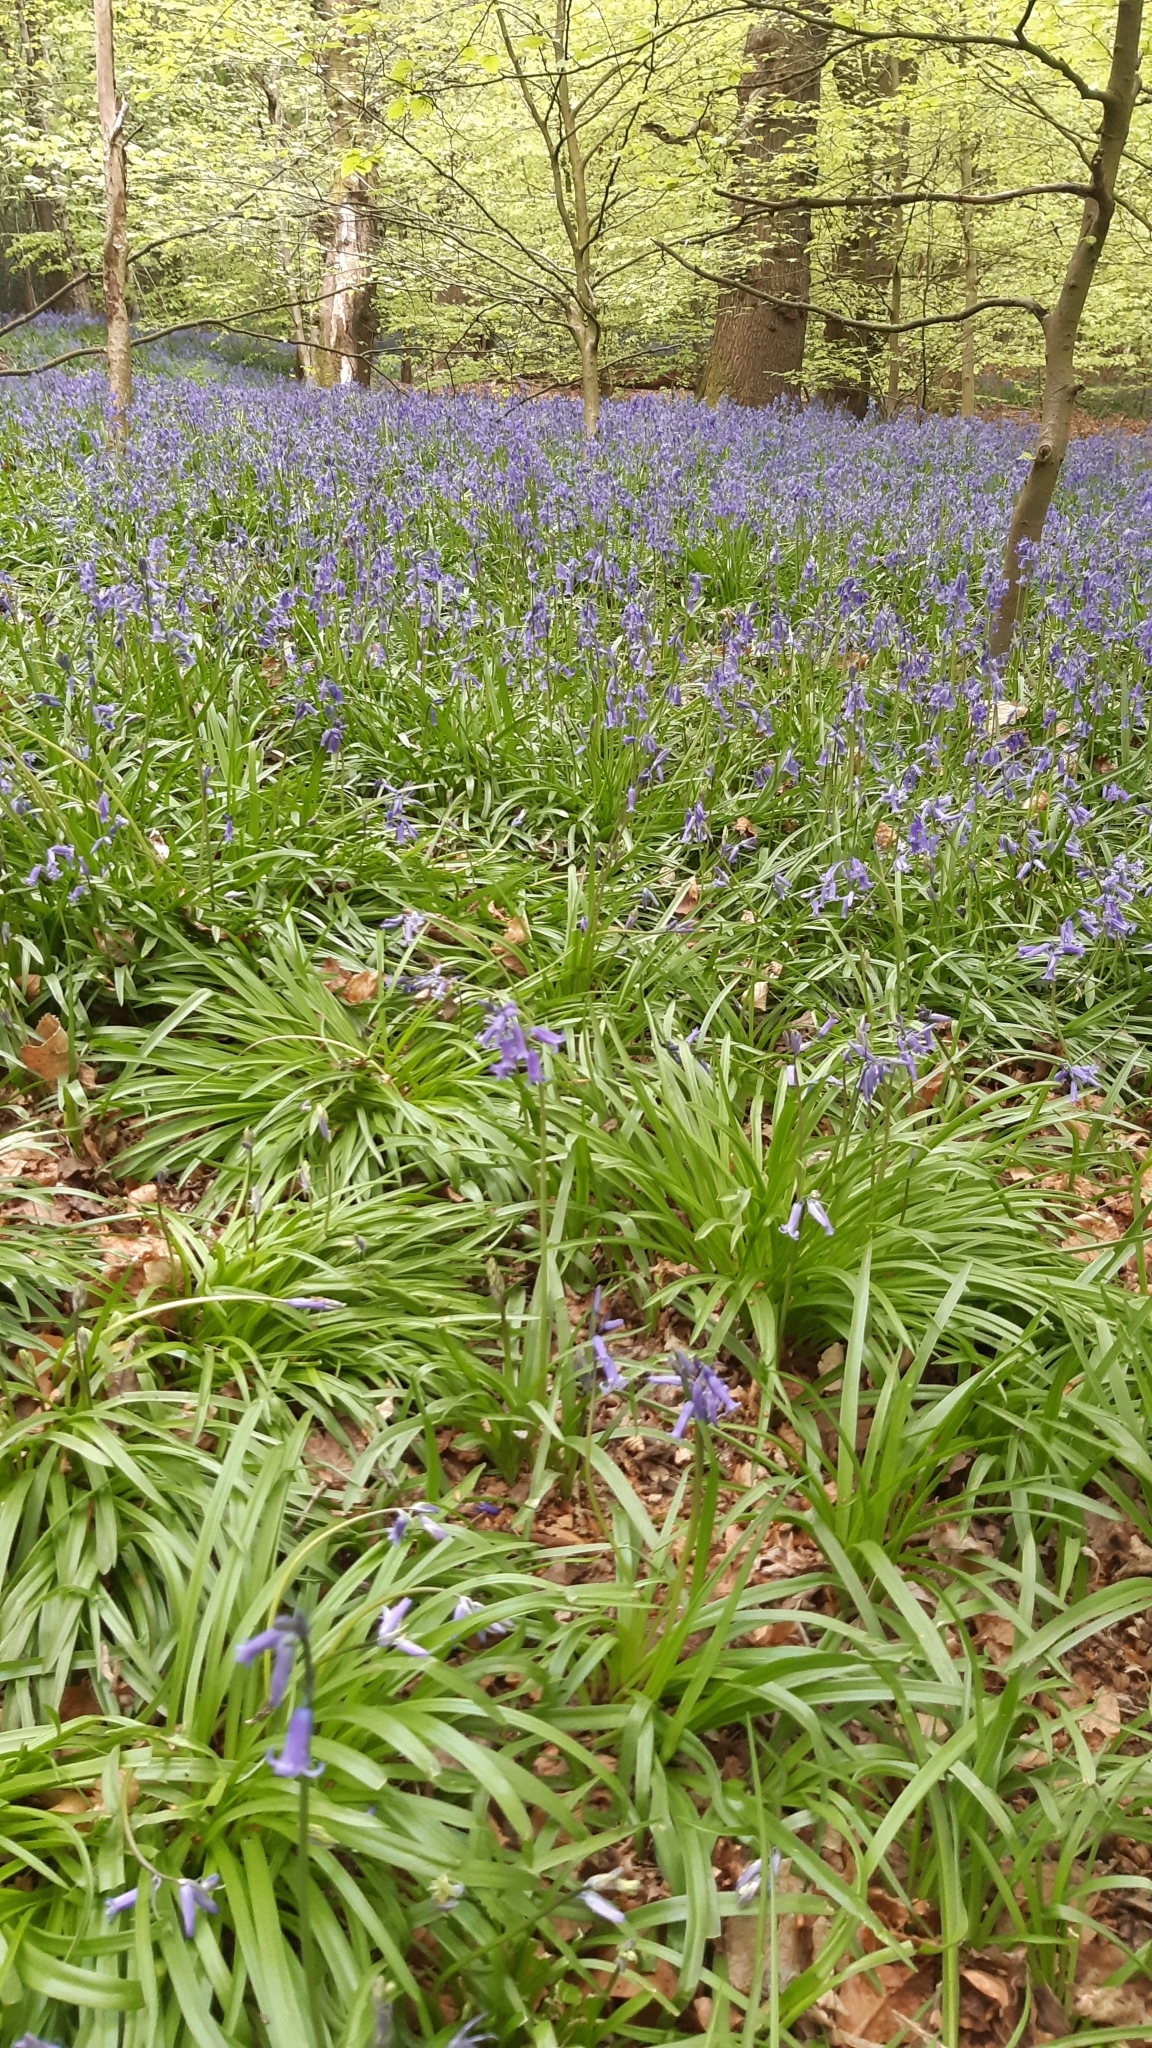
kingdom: Plantae
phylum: Tracheophyta
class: Liliopsida
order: Asparagales
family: Asparagaceae
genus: Hyacinthoides
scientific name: Hyacinthoides non-scripta
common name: Bluebell
